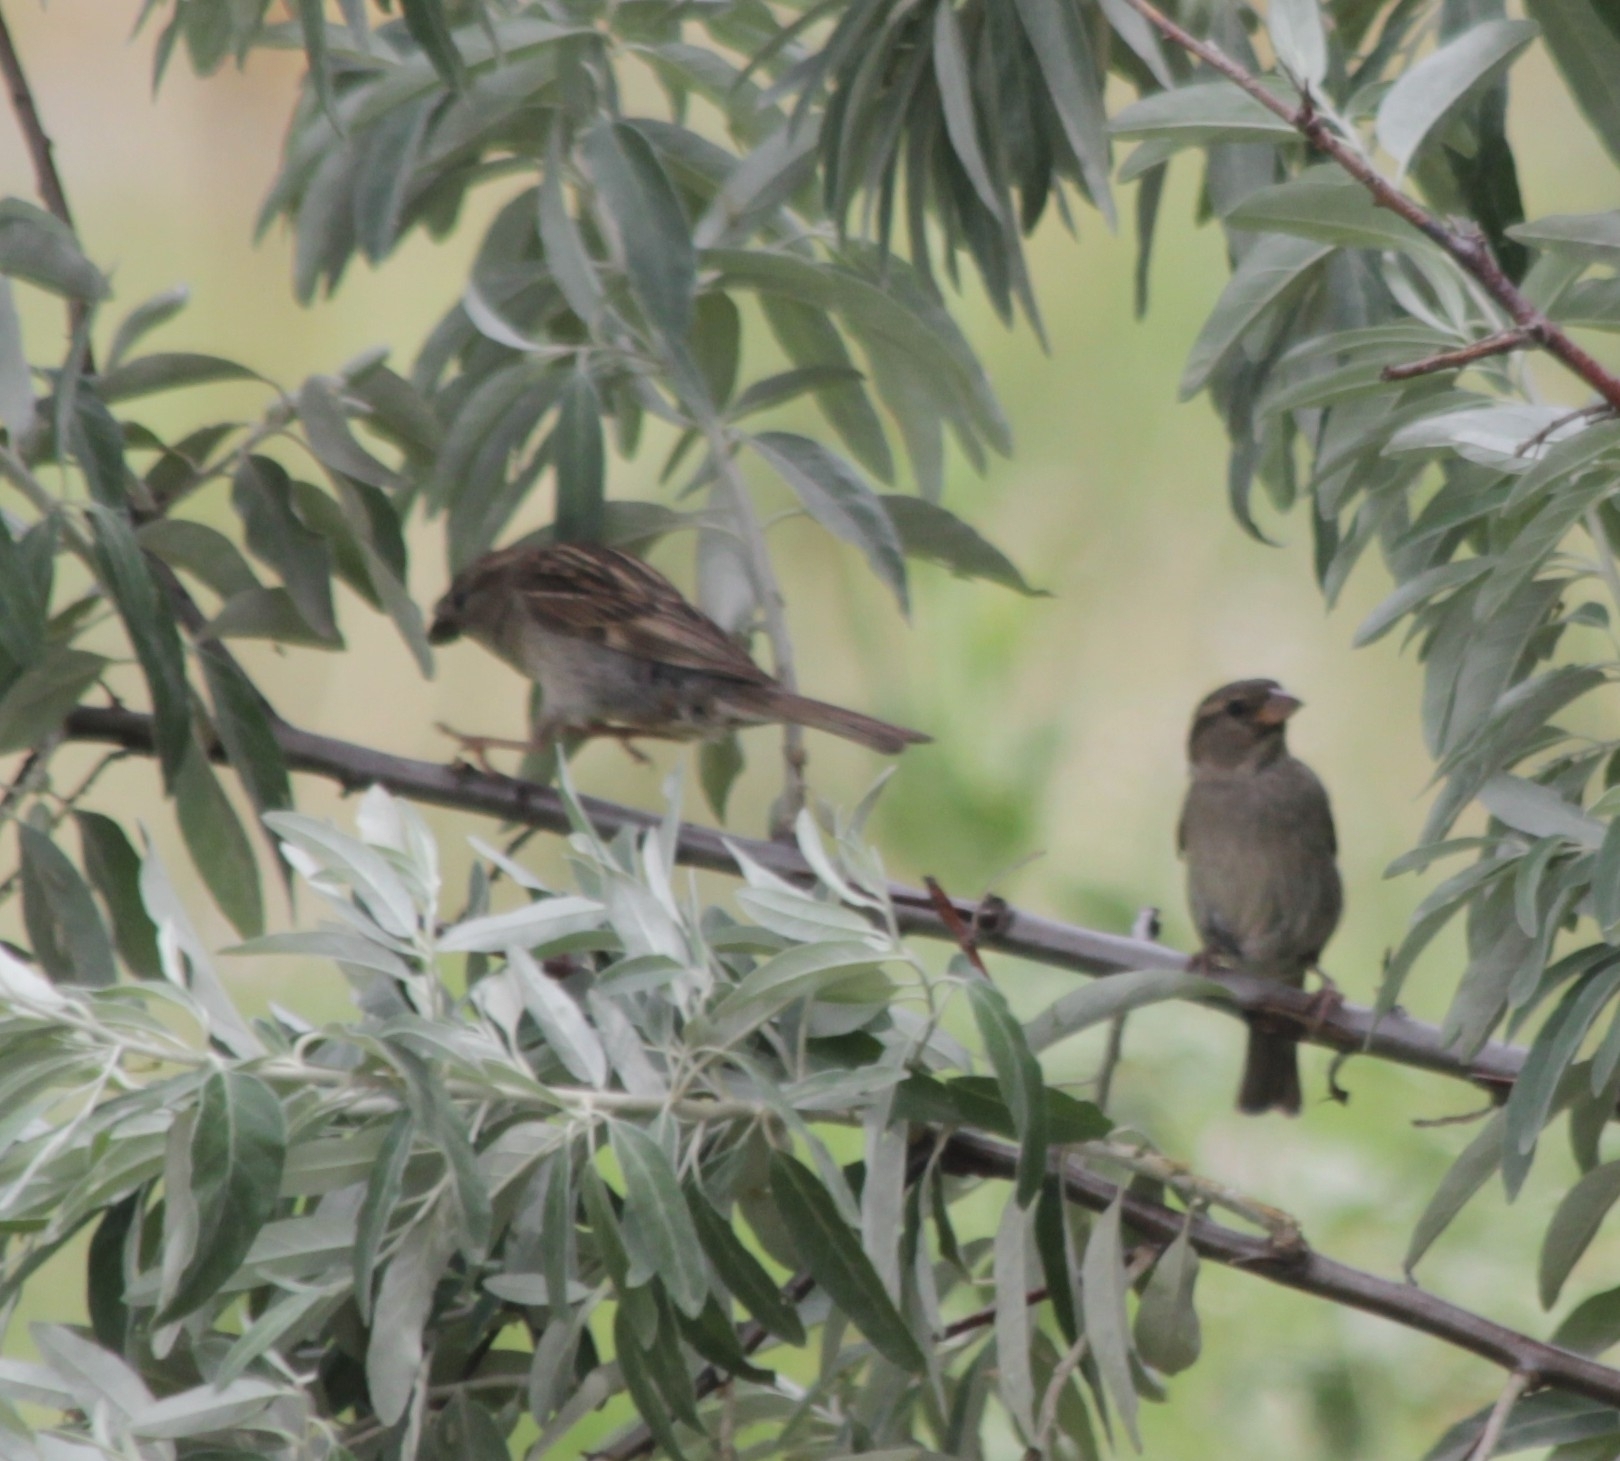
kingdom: Animalia
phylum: Chordata
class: Aves
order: Passeriformes
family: Passeridae
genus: Passer
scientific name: Passer domesticus
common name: House sparrow
